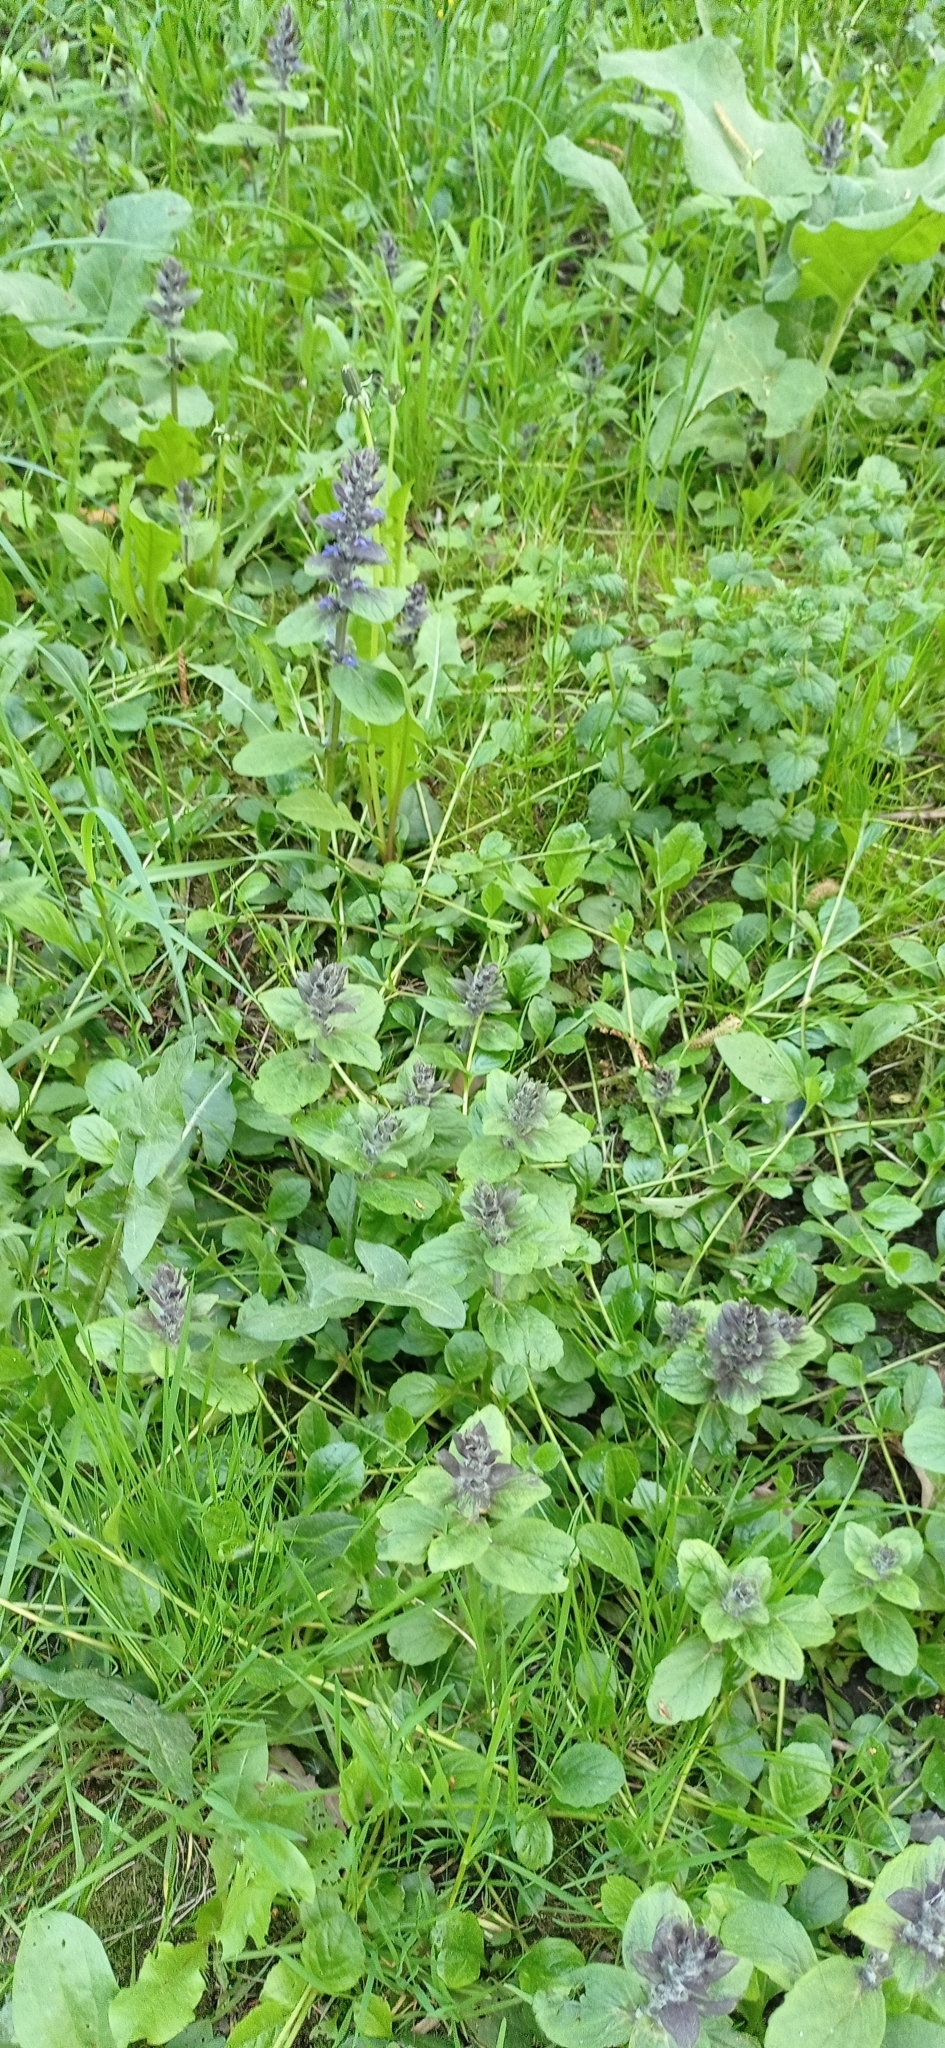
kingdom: Plantae
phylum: Tracheophyta
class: Magnoliopsida
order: Lamiales
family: Lamiaceae
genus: Ajuga
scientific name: Ajuga reptans
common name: Bugle
